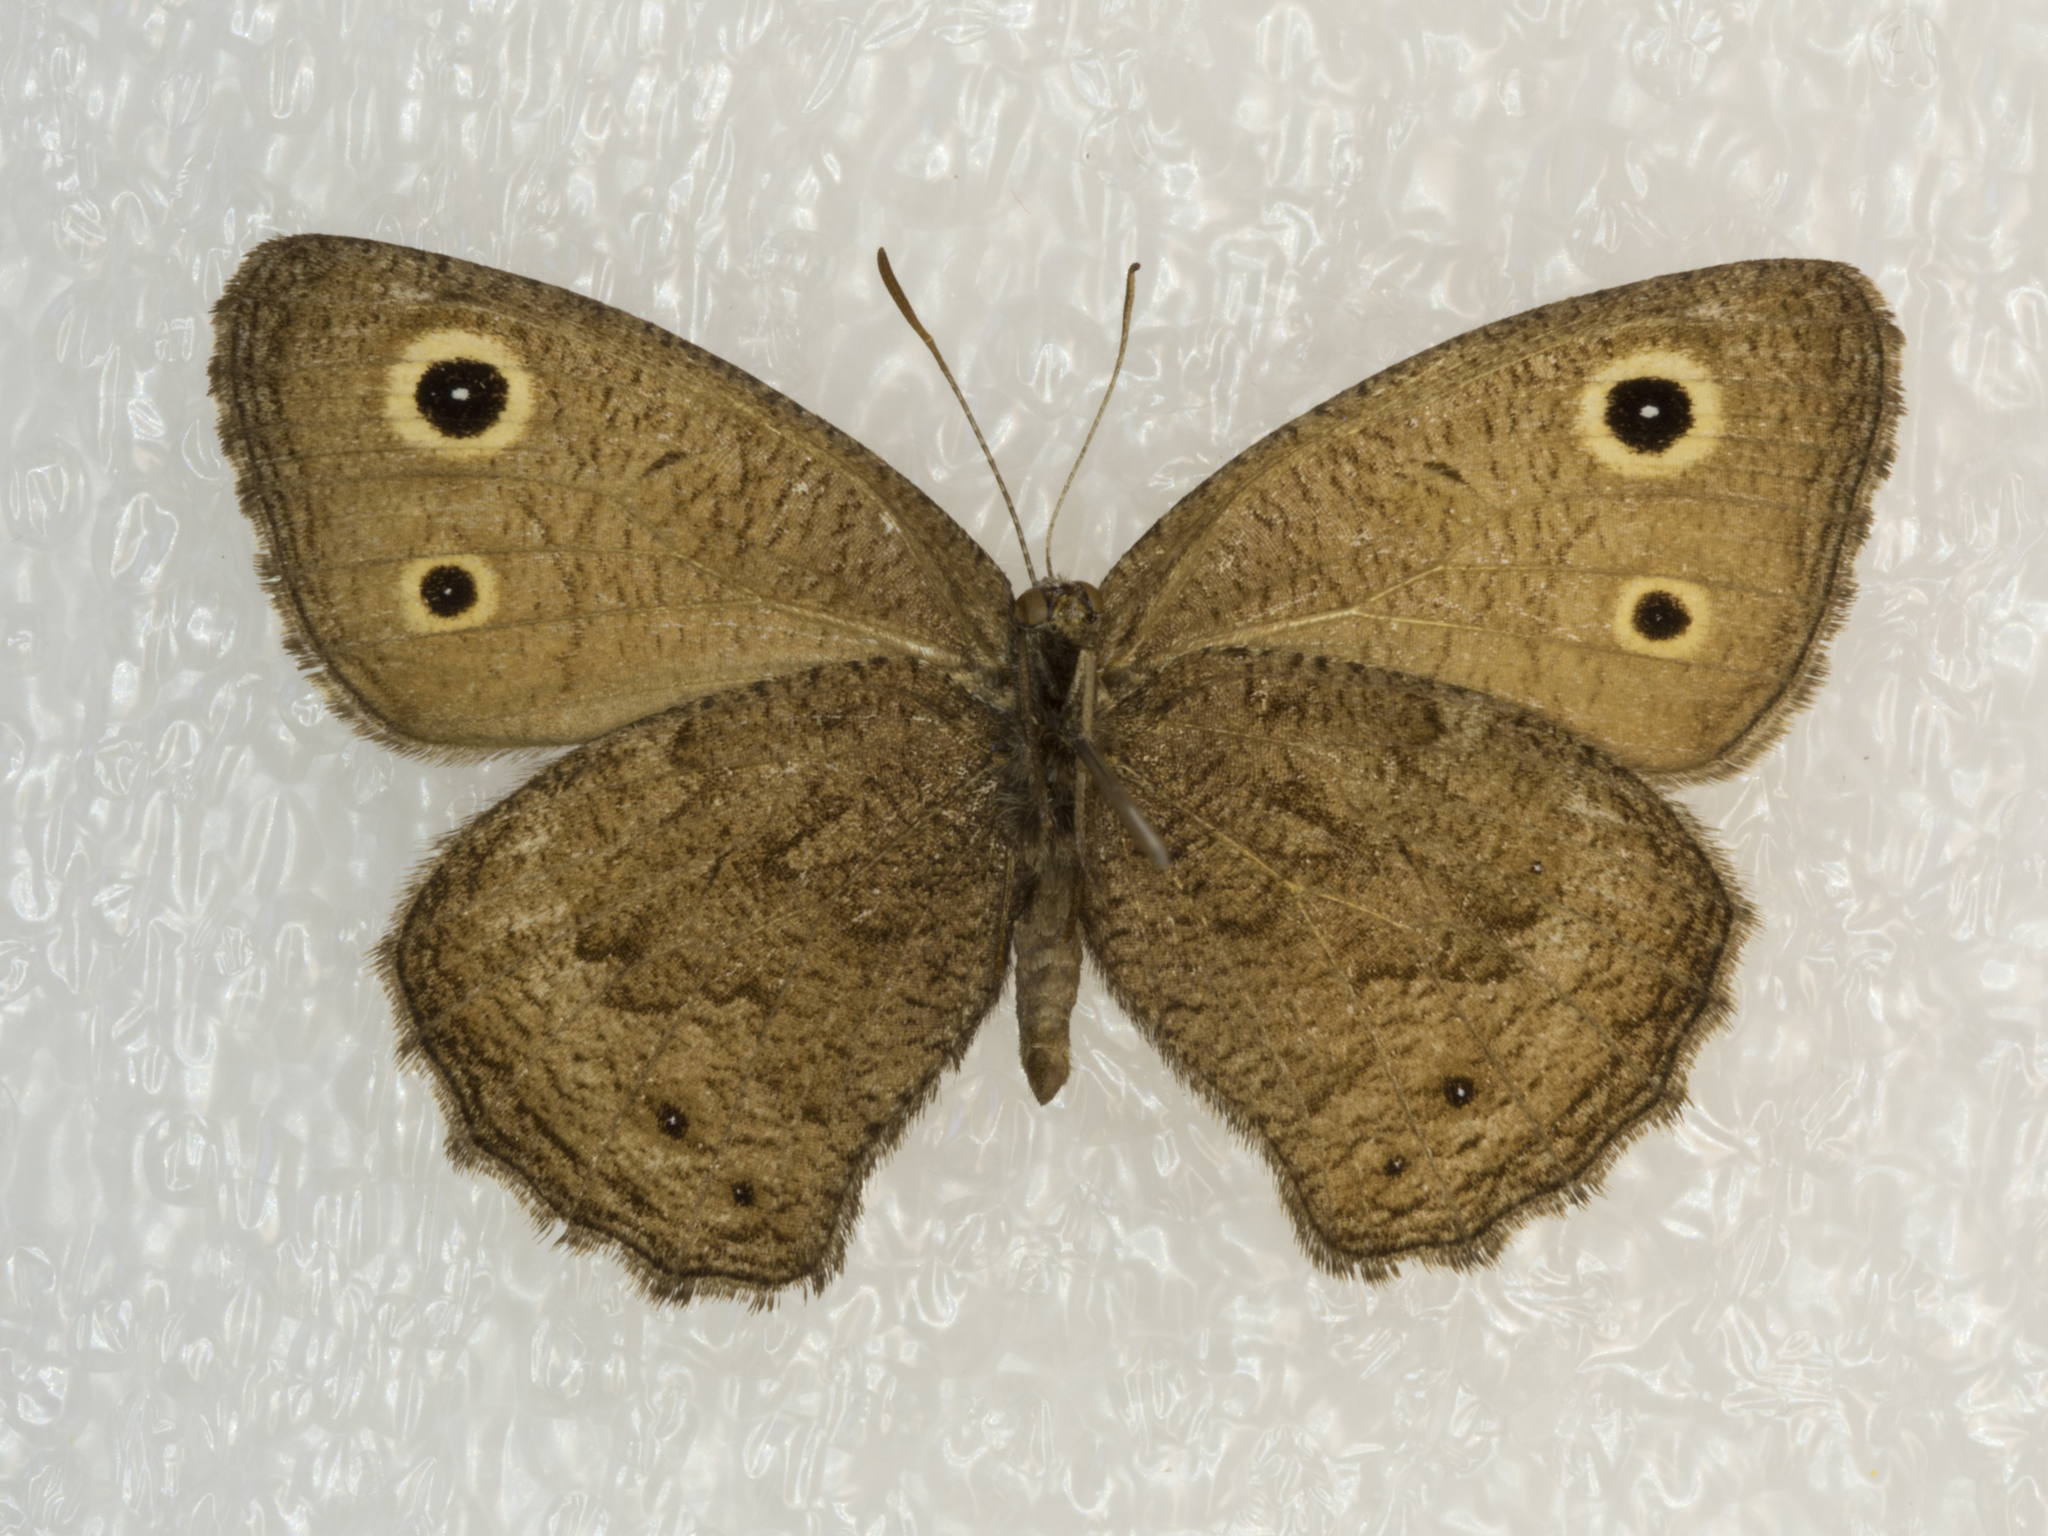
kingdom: Animalia
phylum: Arthropoda
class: Insecta
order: Lepidoptera
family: Nymphalidae
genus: Cercyonis
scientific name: Cercyonis oetus
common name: Small wood-nymph
